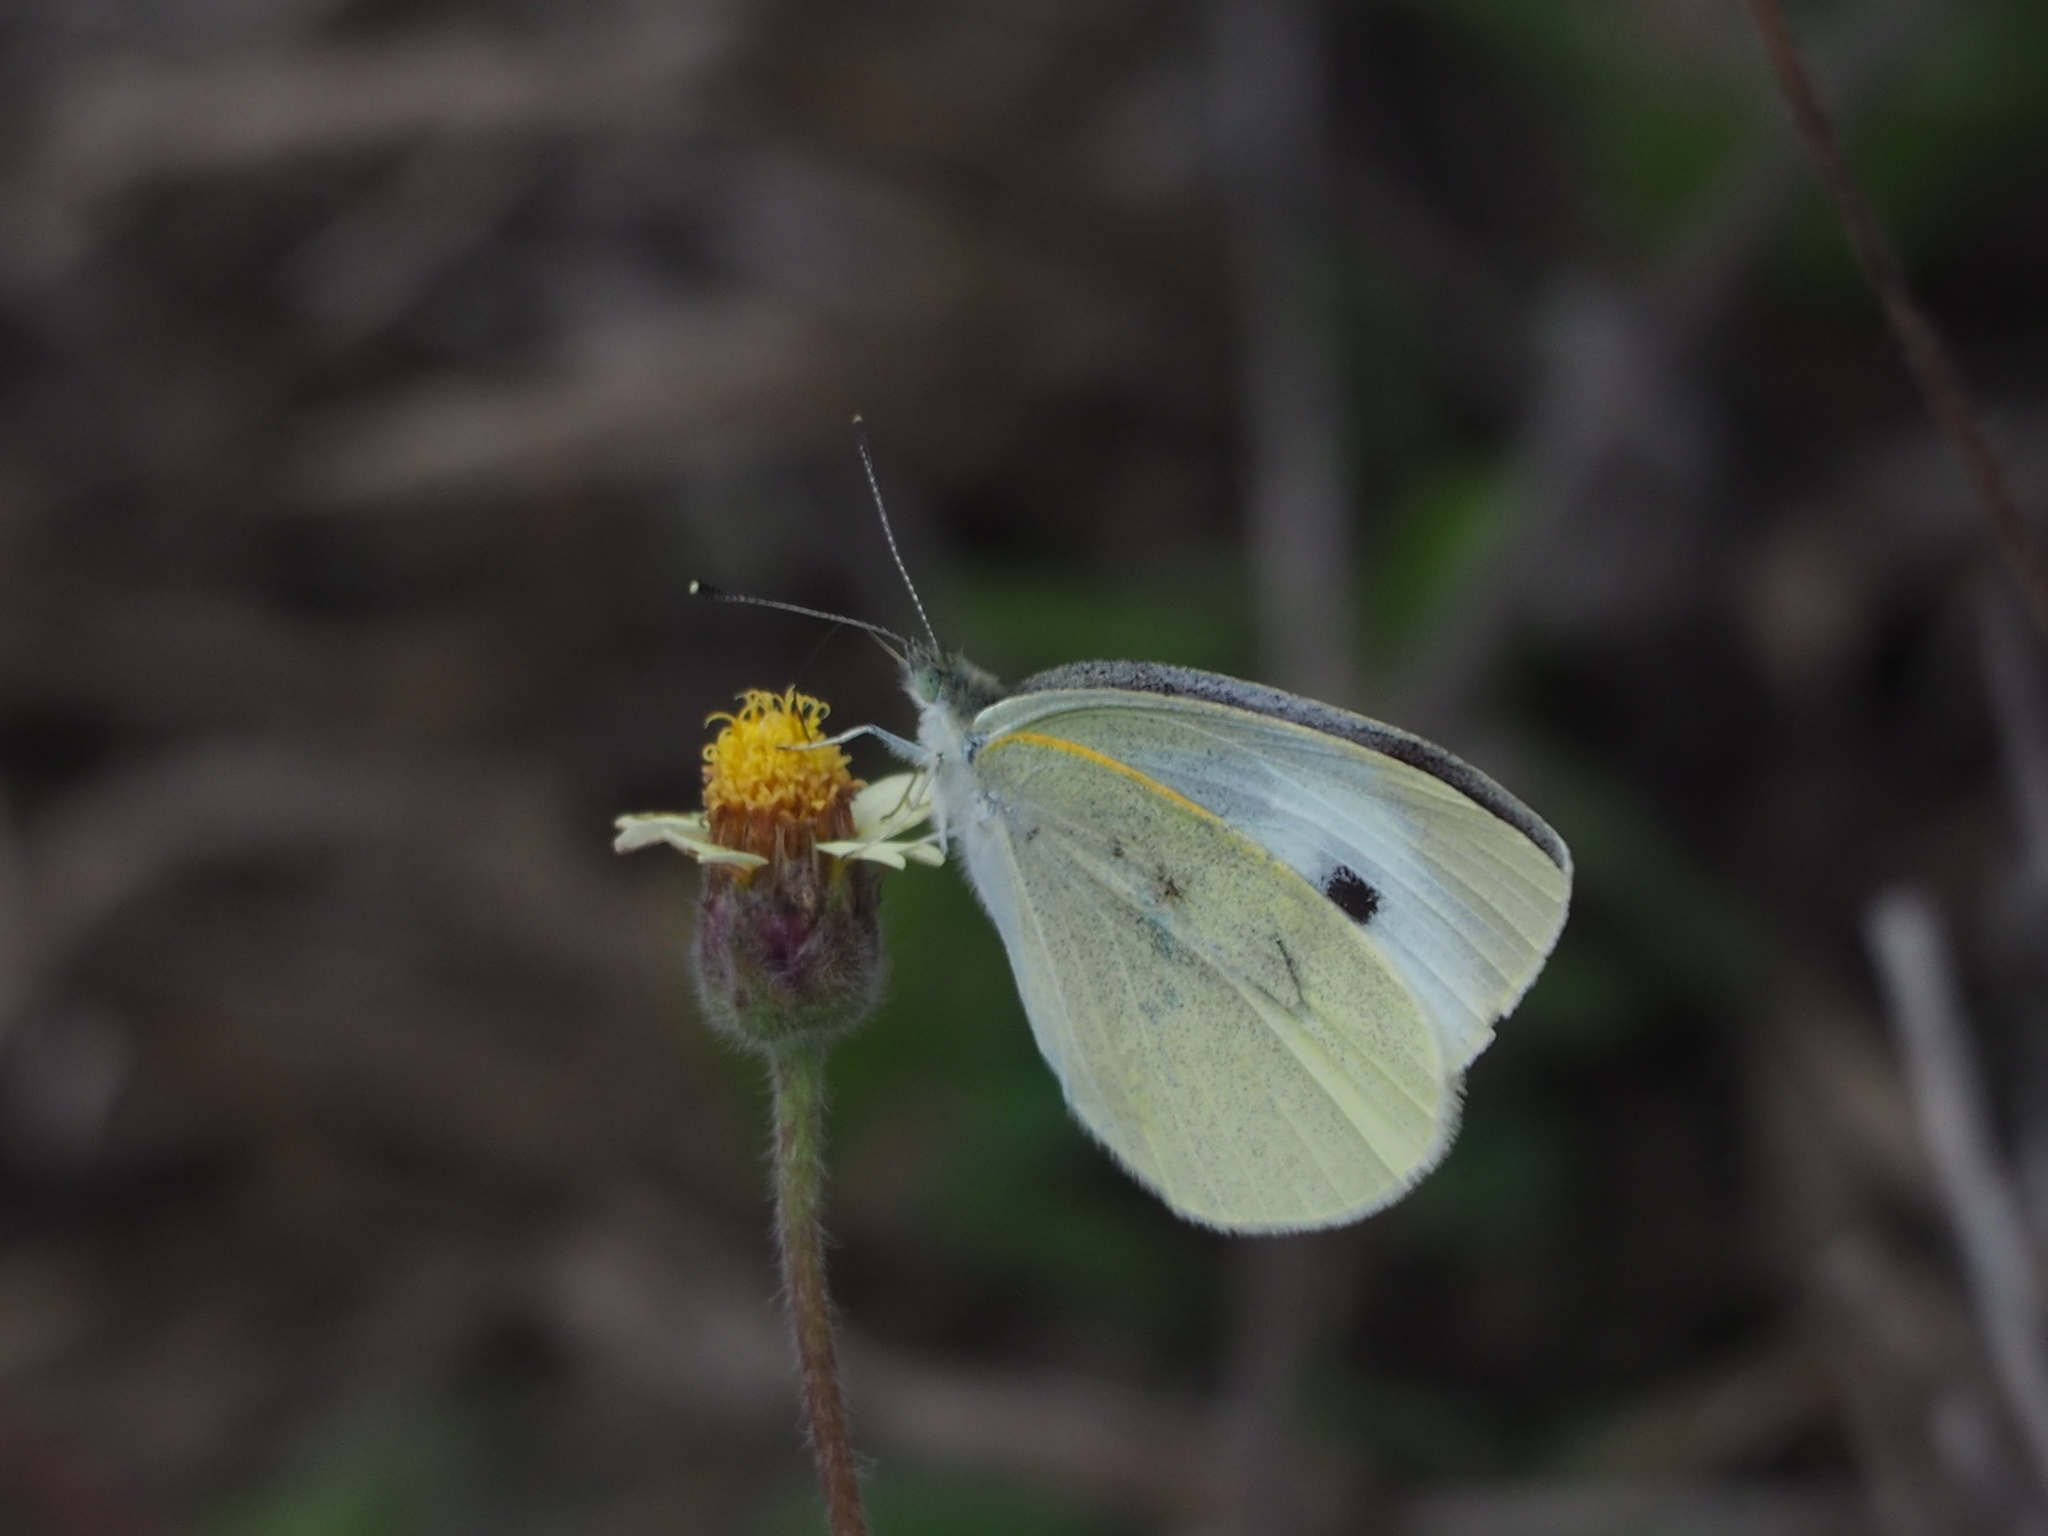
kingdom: Animalia
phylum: Arthropoda
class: Insecta
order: Lepidoptera
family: Pieridae
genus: Pieris
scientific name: Pieris rapae
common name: Small white
